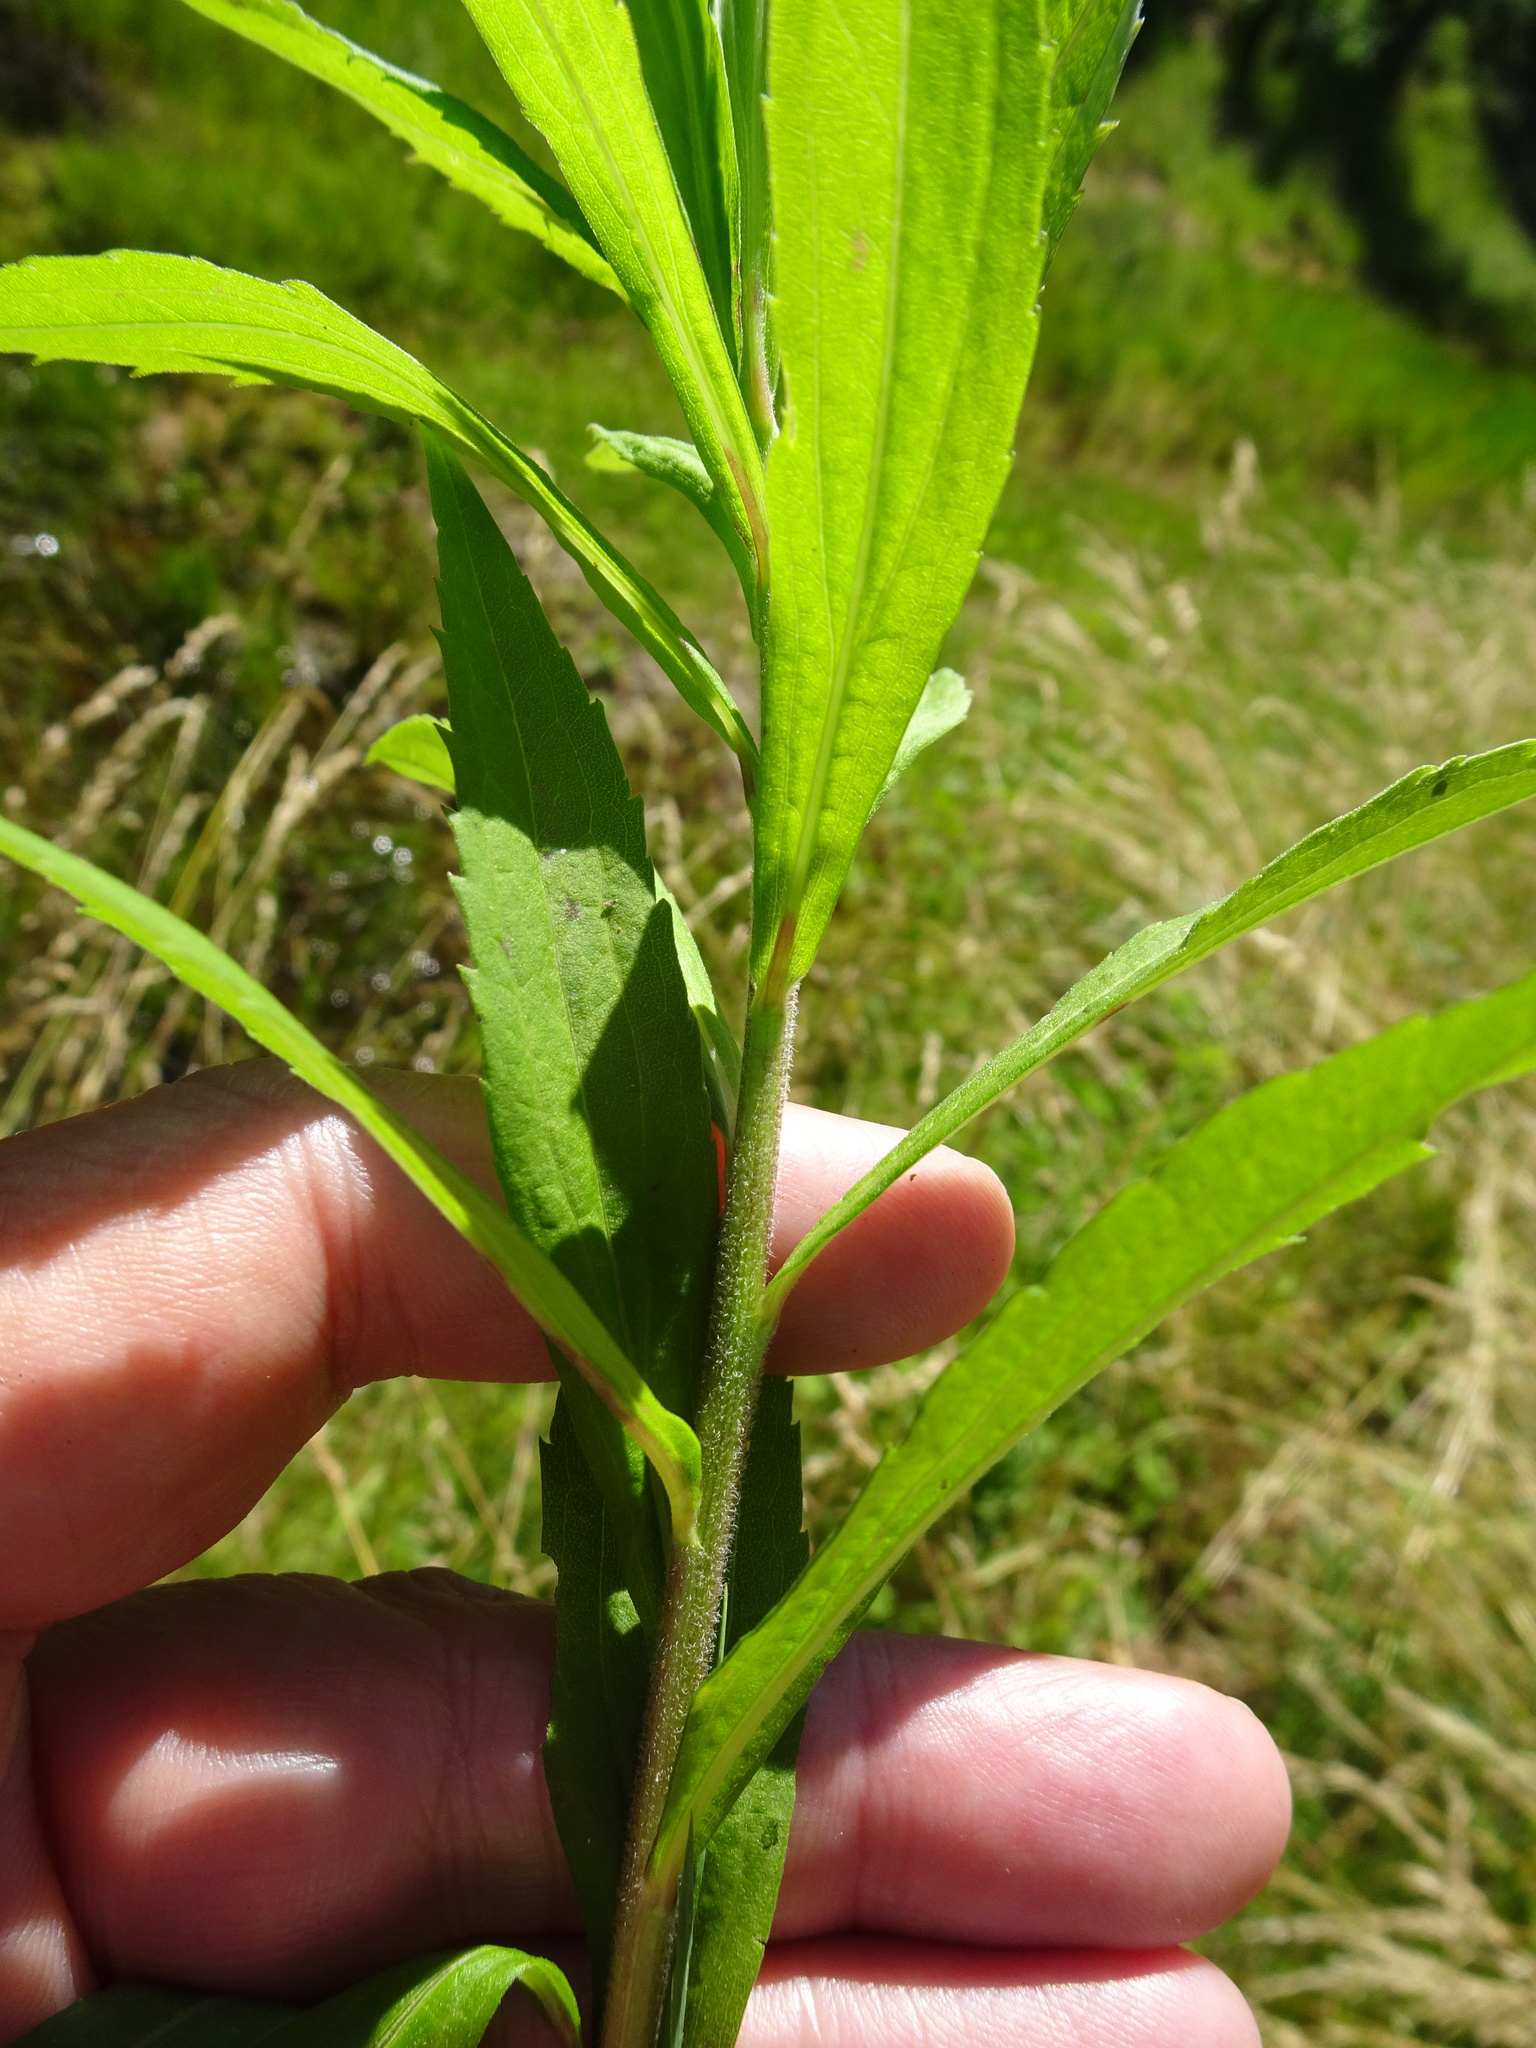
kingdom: Plantae
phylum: Tracheophyta
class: Magnoliopsida
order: Asterales
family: Asteraceae
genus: Solidago
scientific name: Solidago canadensis
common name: Canada goldenrod
